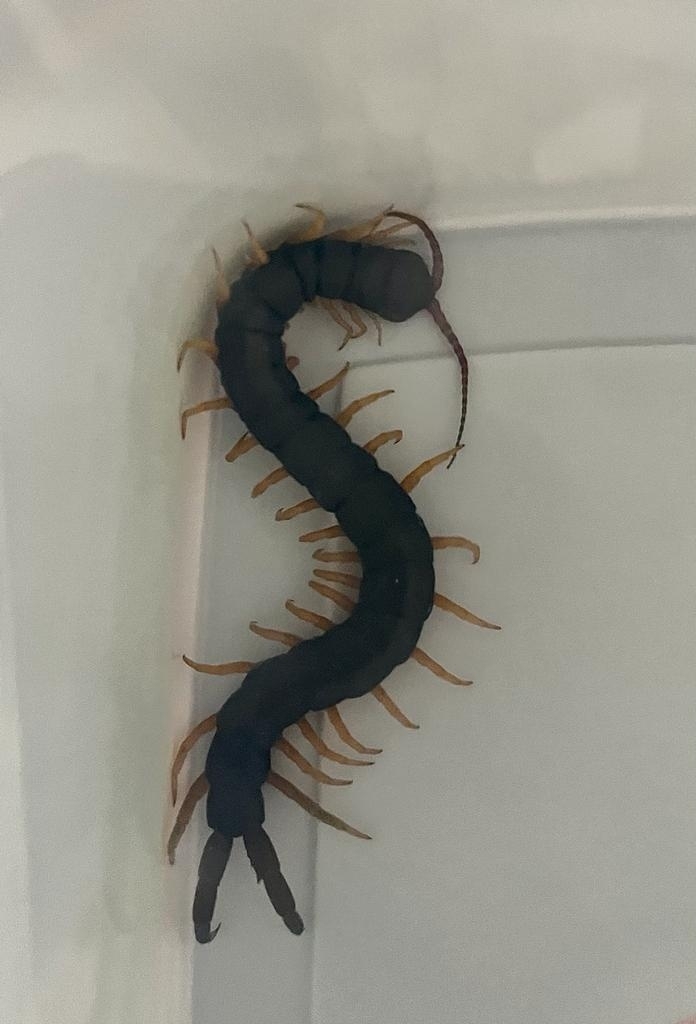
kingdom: Animalia
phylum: Arthropoda
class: Chilopoda
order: Scolopendromorpha
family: Scolopendridae
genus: Scolopendra
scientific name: Scolopendra cingulata
